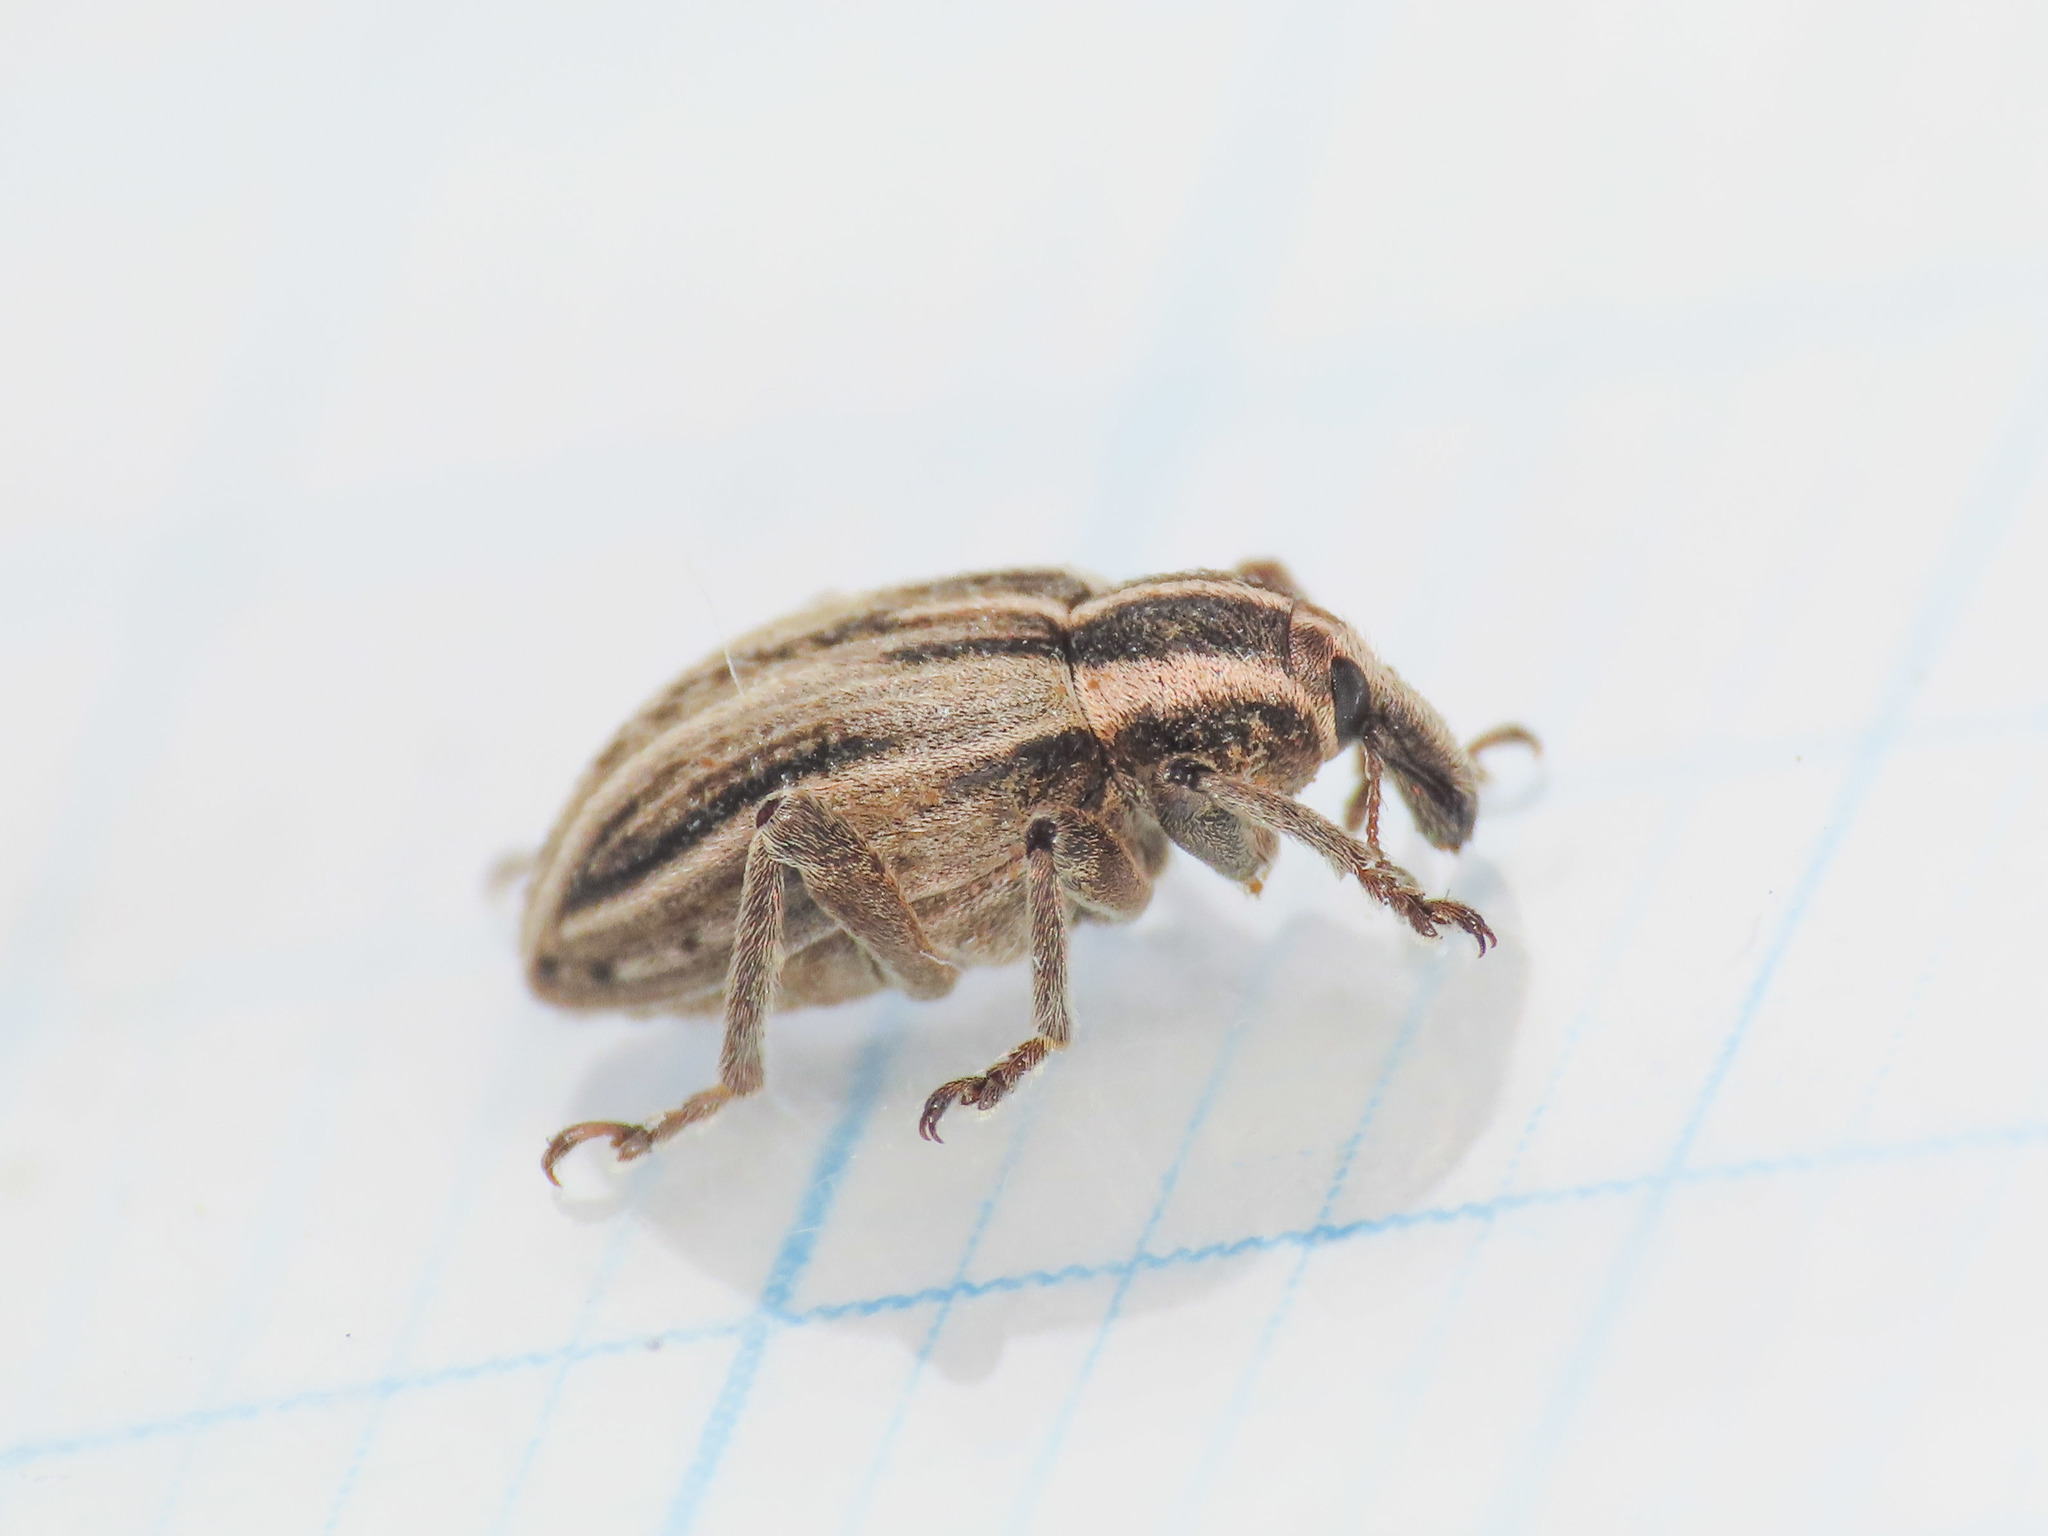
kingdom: Animalia
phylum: Arthropoda
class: Insecta
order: Coleoptera
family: Curculionidae
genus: Hypera
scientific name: Hypera arator
